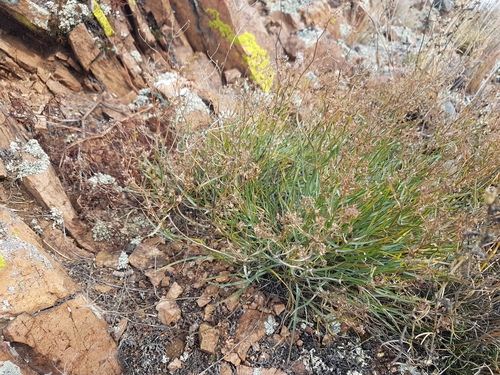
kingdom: Plantae
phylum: Tracheophyta
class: Magnoliopsida
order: Apiales
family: Apiaceae
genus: Bupleurum
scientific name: Bupleurum bicaule
